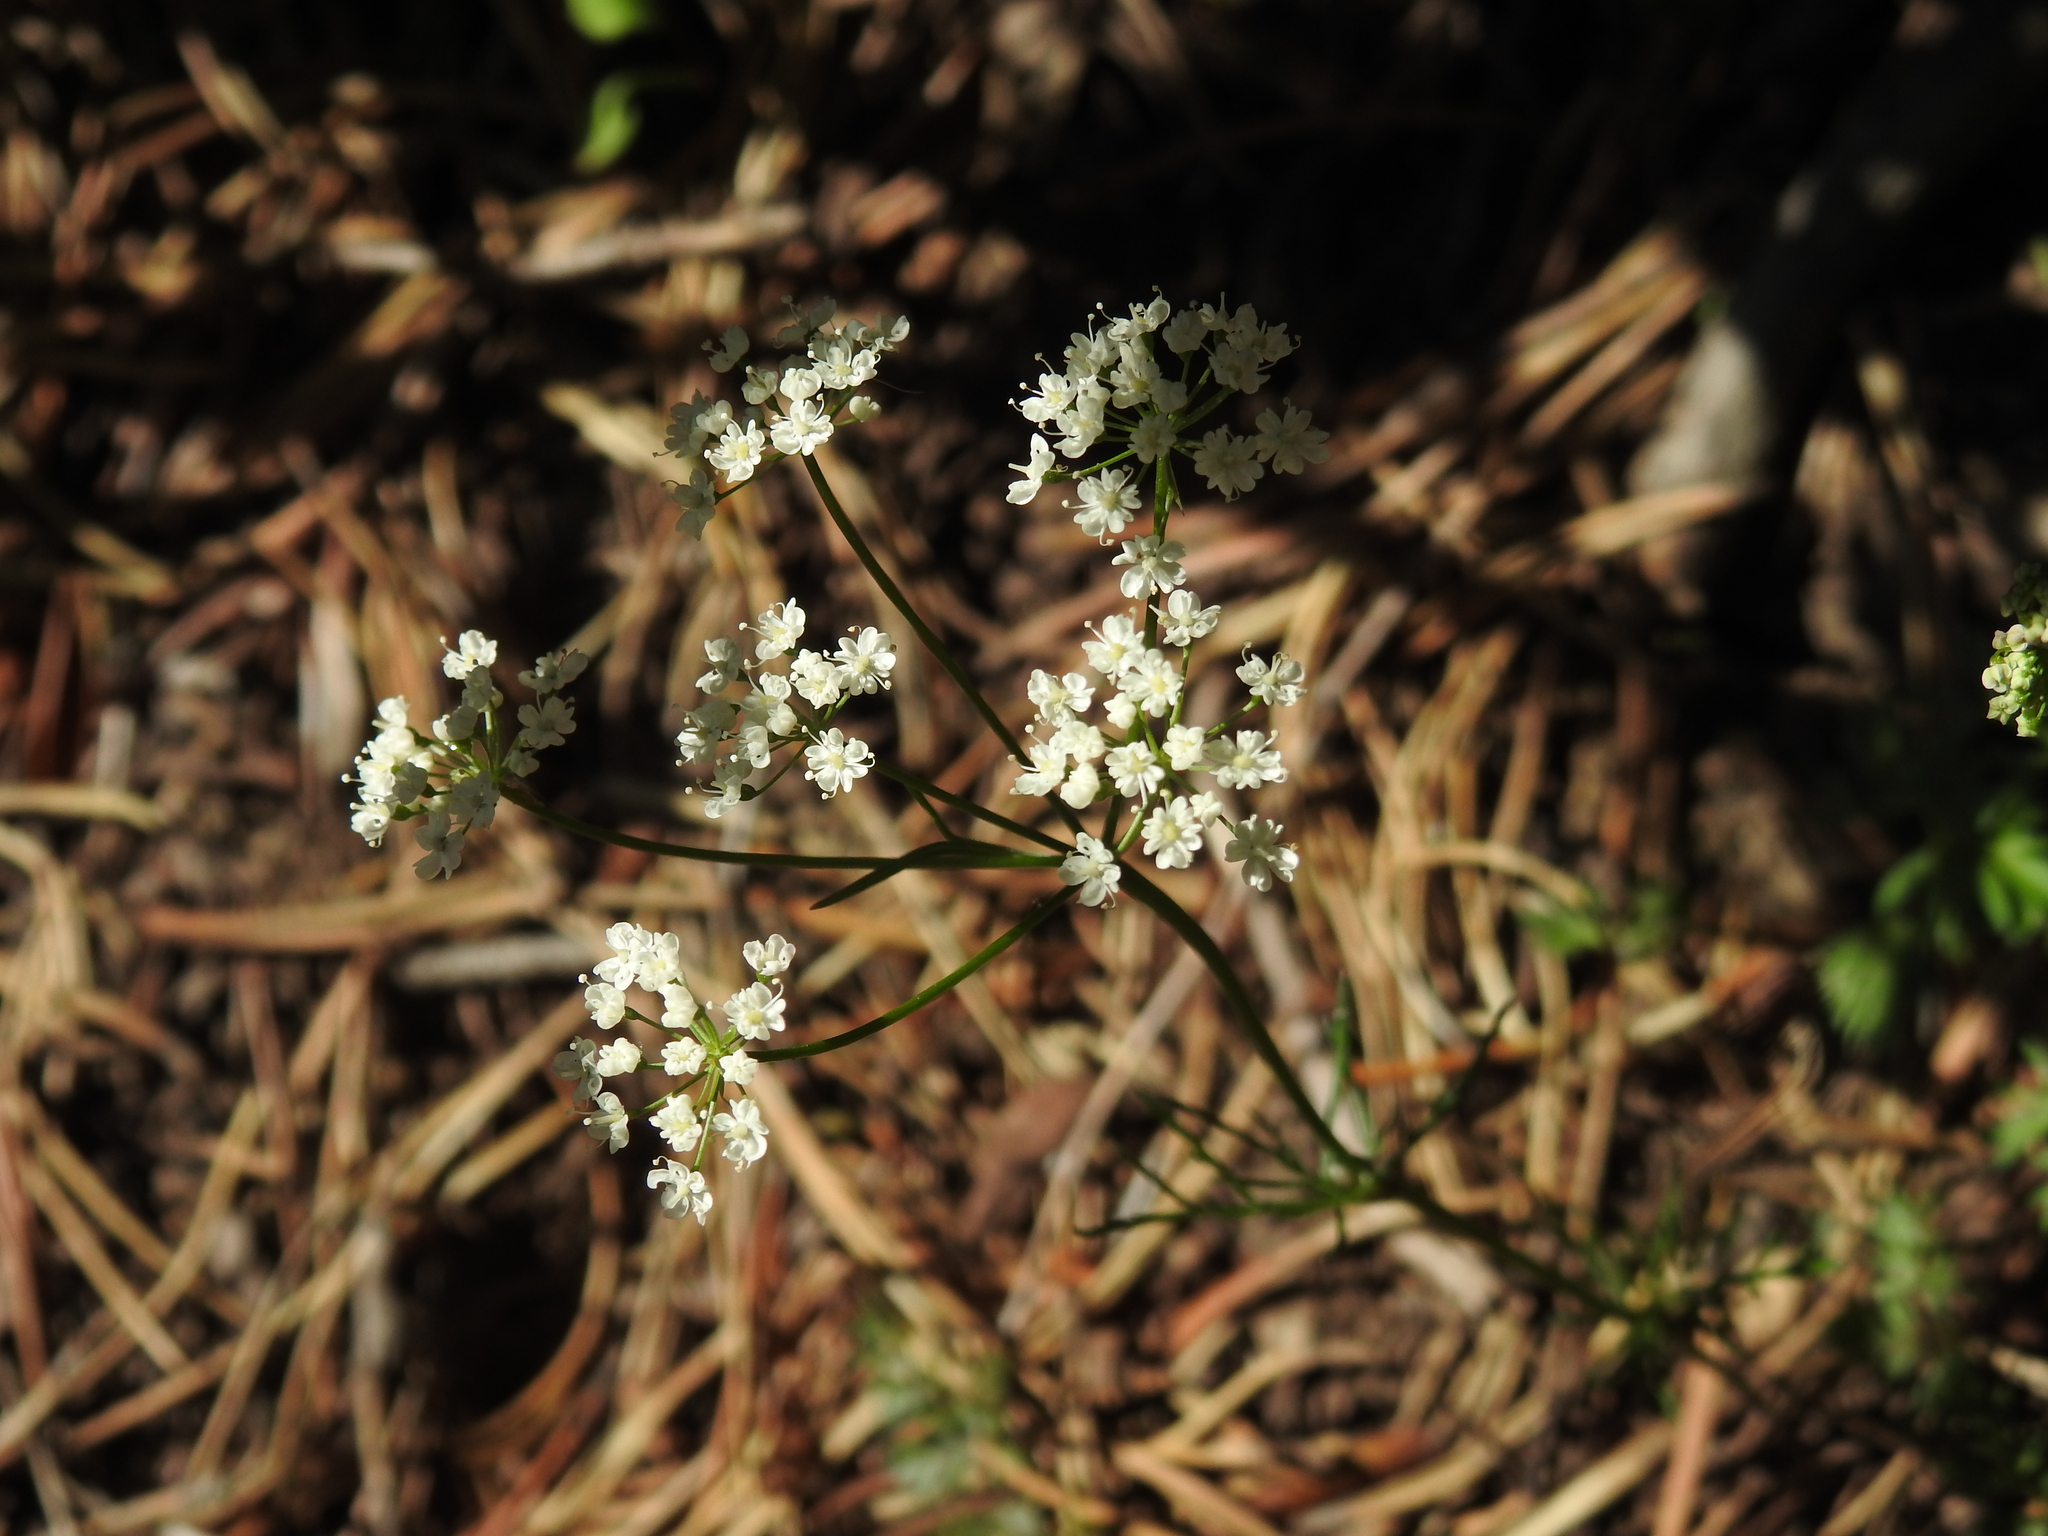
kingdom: Plantae
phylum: Tracheophyta
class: Magnoliopsida
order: Apiales
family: Apiaceae
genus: Conopodium
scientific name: Conopodium majus
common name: Pignut
